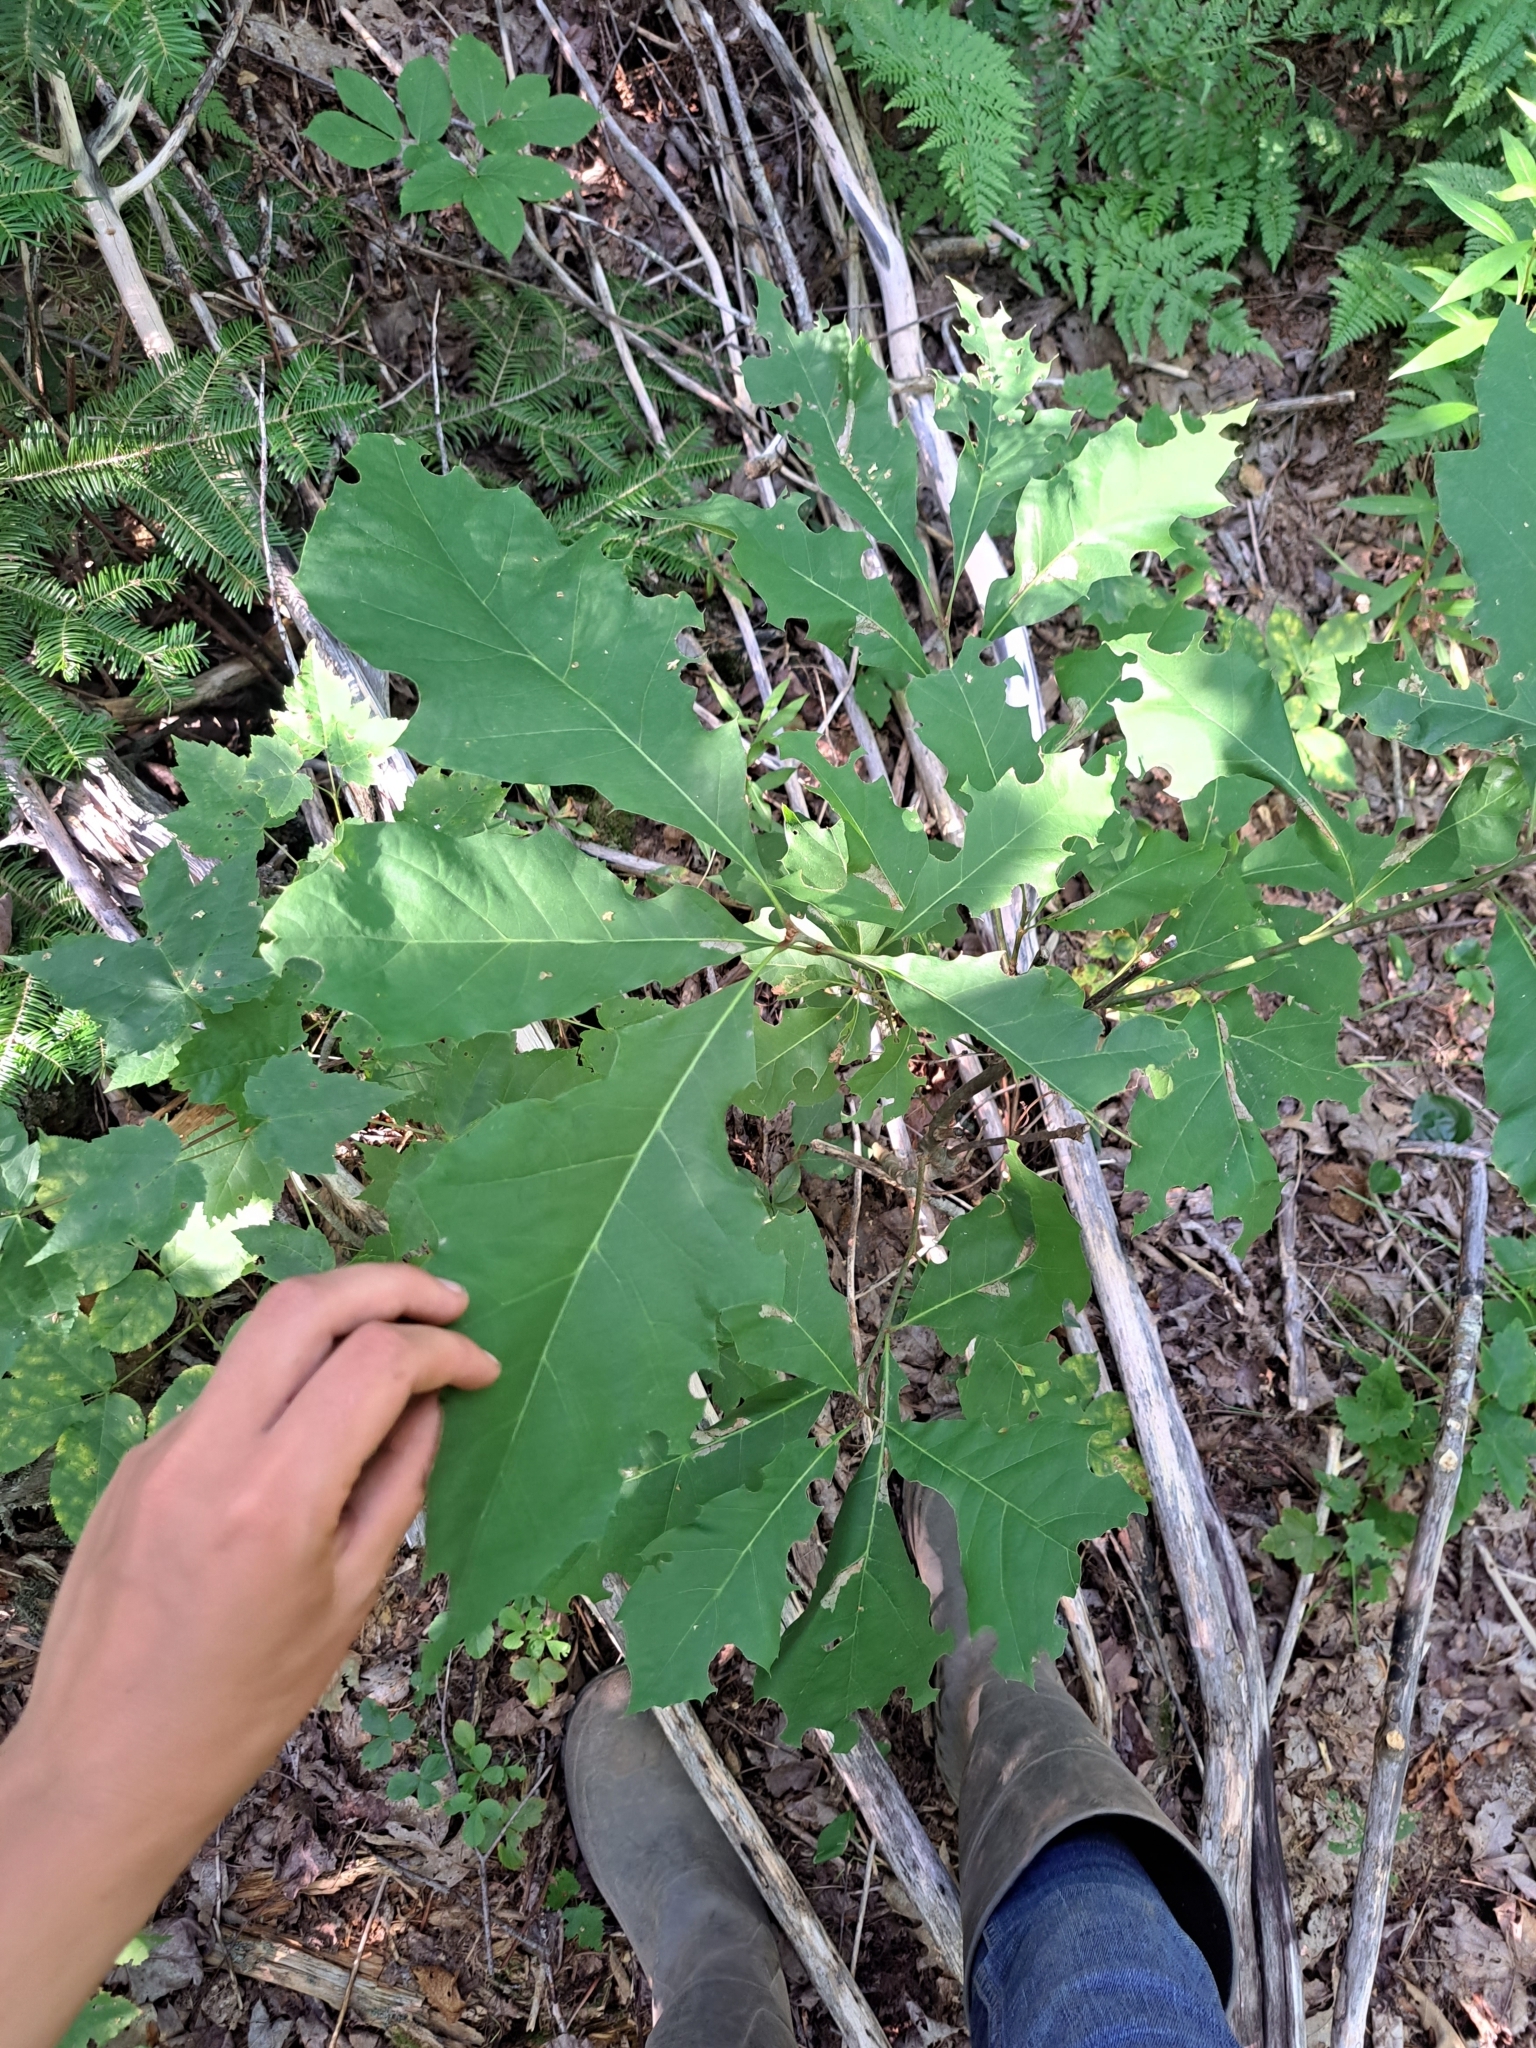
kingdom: Plantae
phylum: Tracheophyta
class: Magnoliopsida
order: Fagales
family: Fagaceae
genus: Quercus
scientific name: Quercus rubra
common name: Red oak
